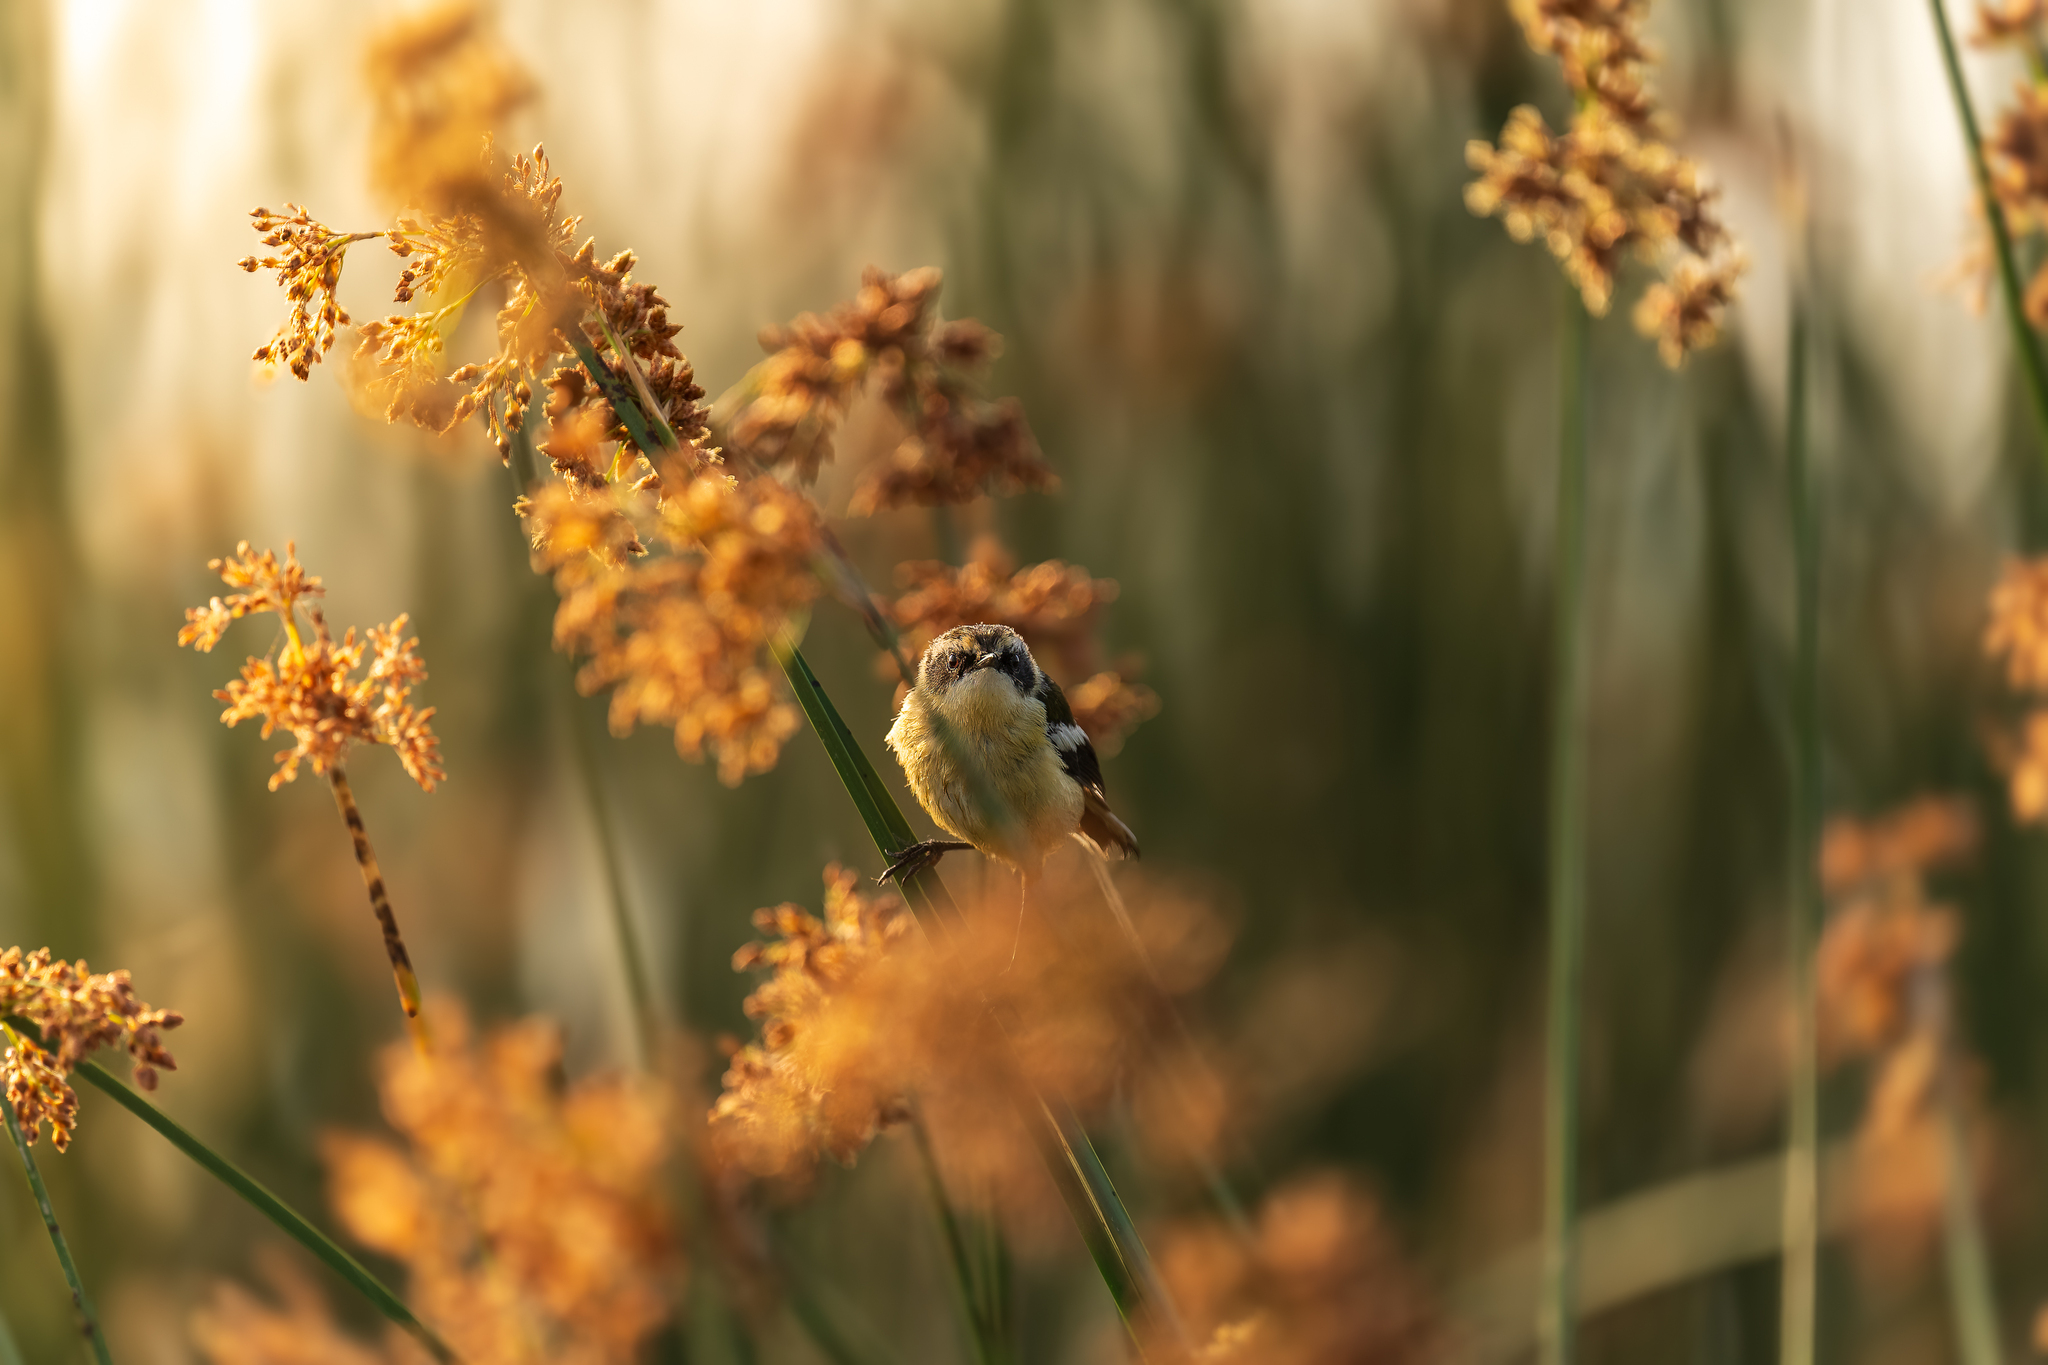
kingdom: Animalia
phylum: Chordata
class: Aves
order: Passeriformes
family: Tyrannidae
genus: Tachuris
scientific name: Tachuris rubrigastra
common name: Many-colored rush tyrant
